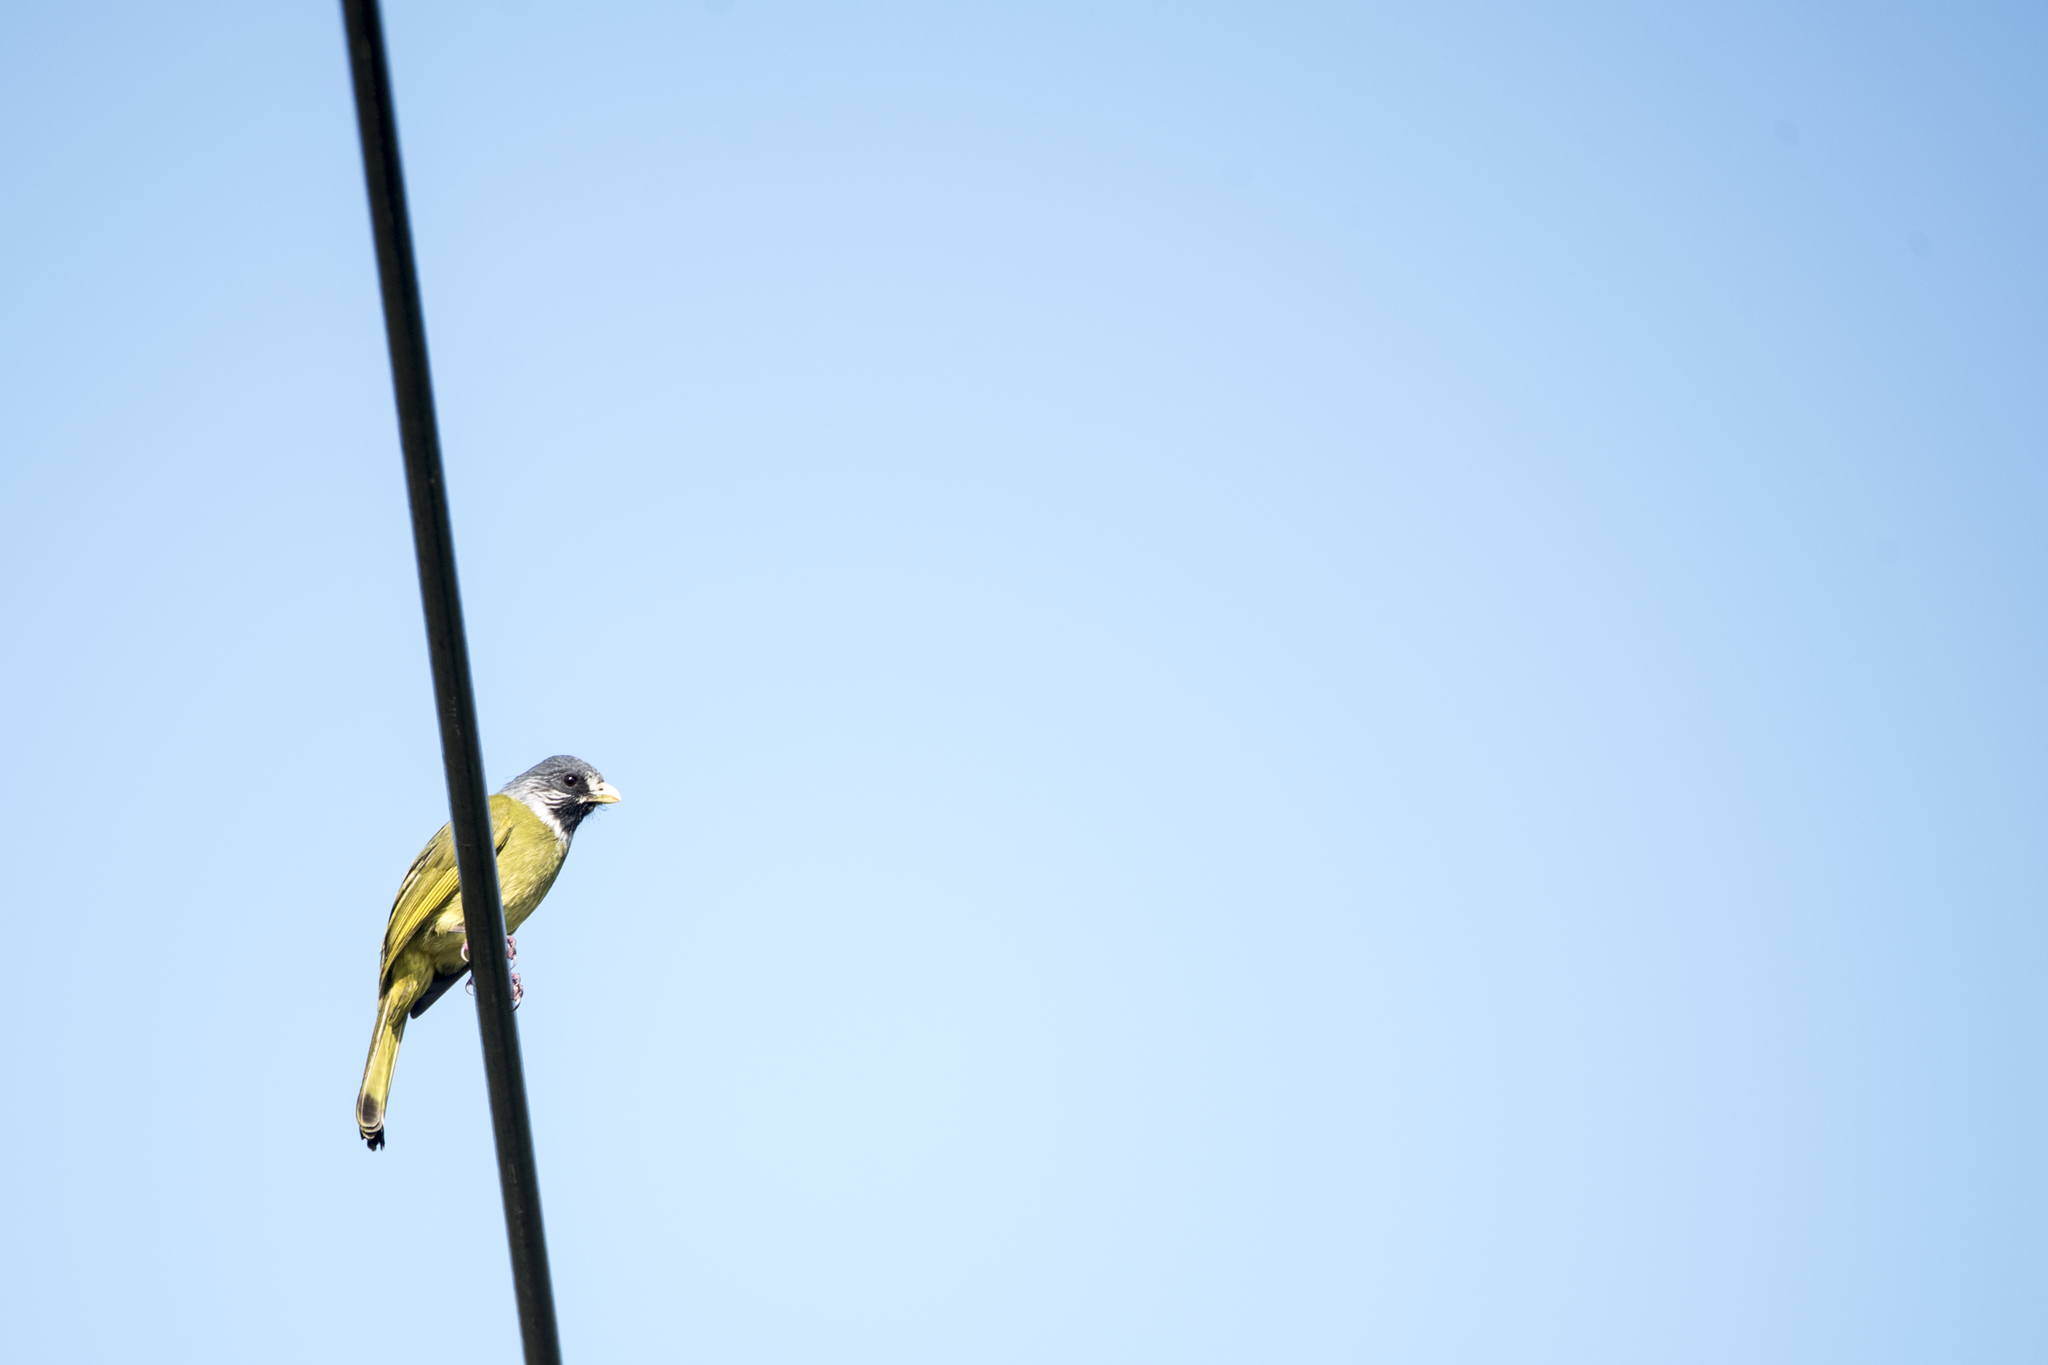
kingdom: Animalia
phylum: Chordata
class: Aves
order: Passeriformes
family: Pycnonotidae
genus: Spizixos
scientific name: Spizixos semitorques
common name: Collared finchbill
